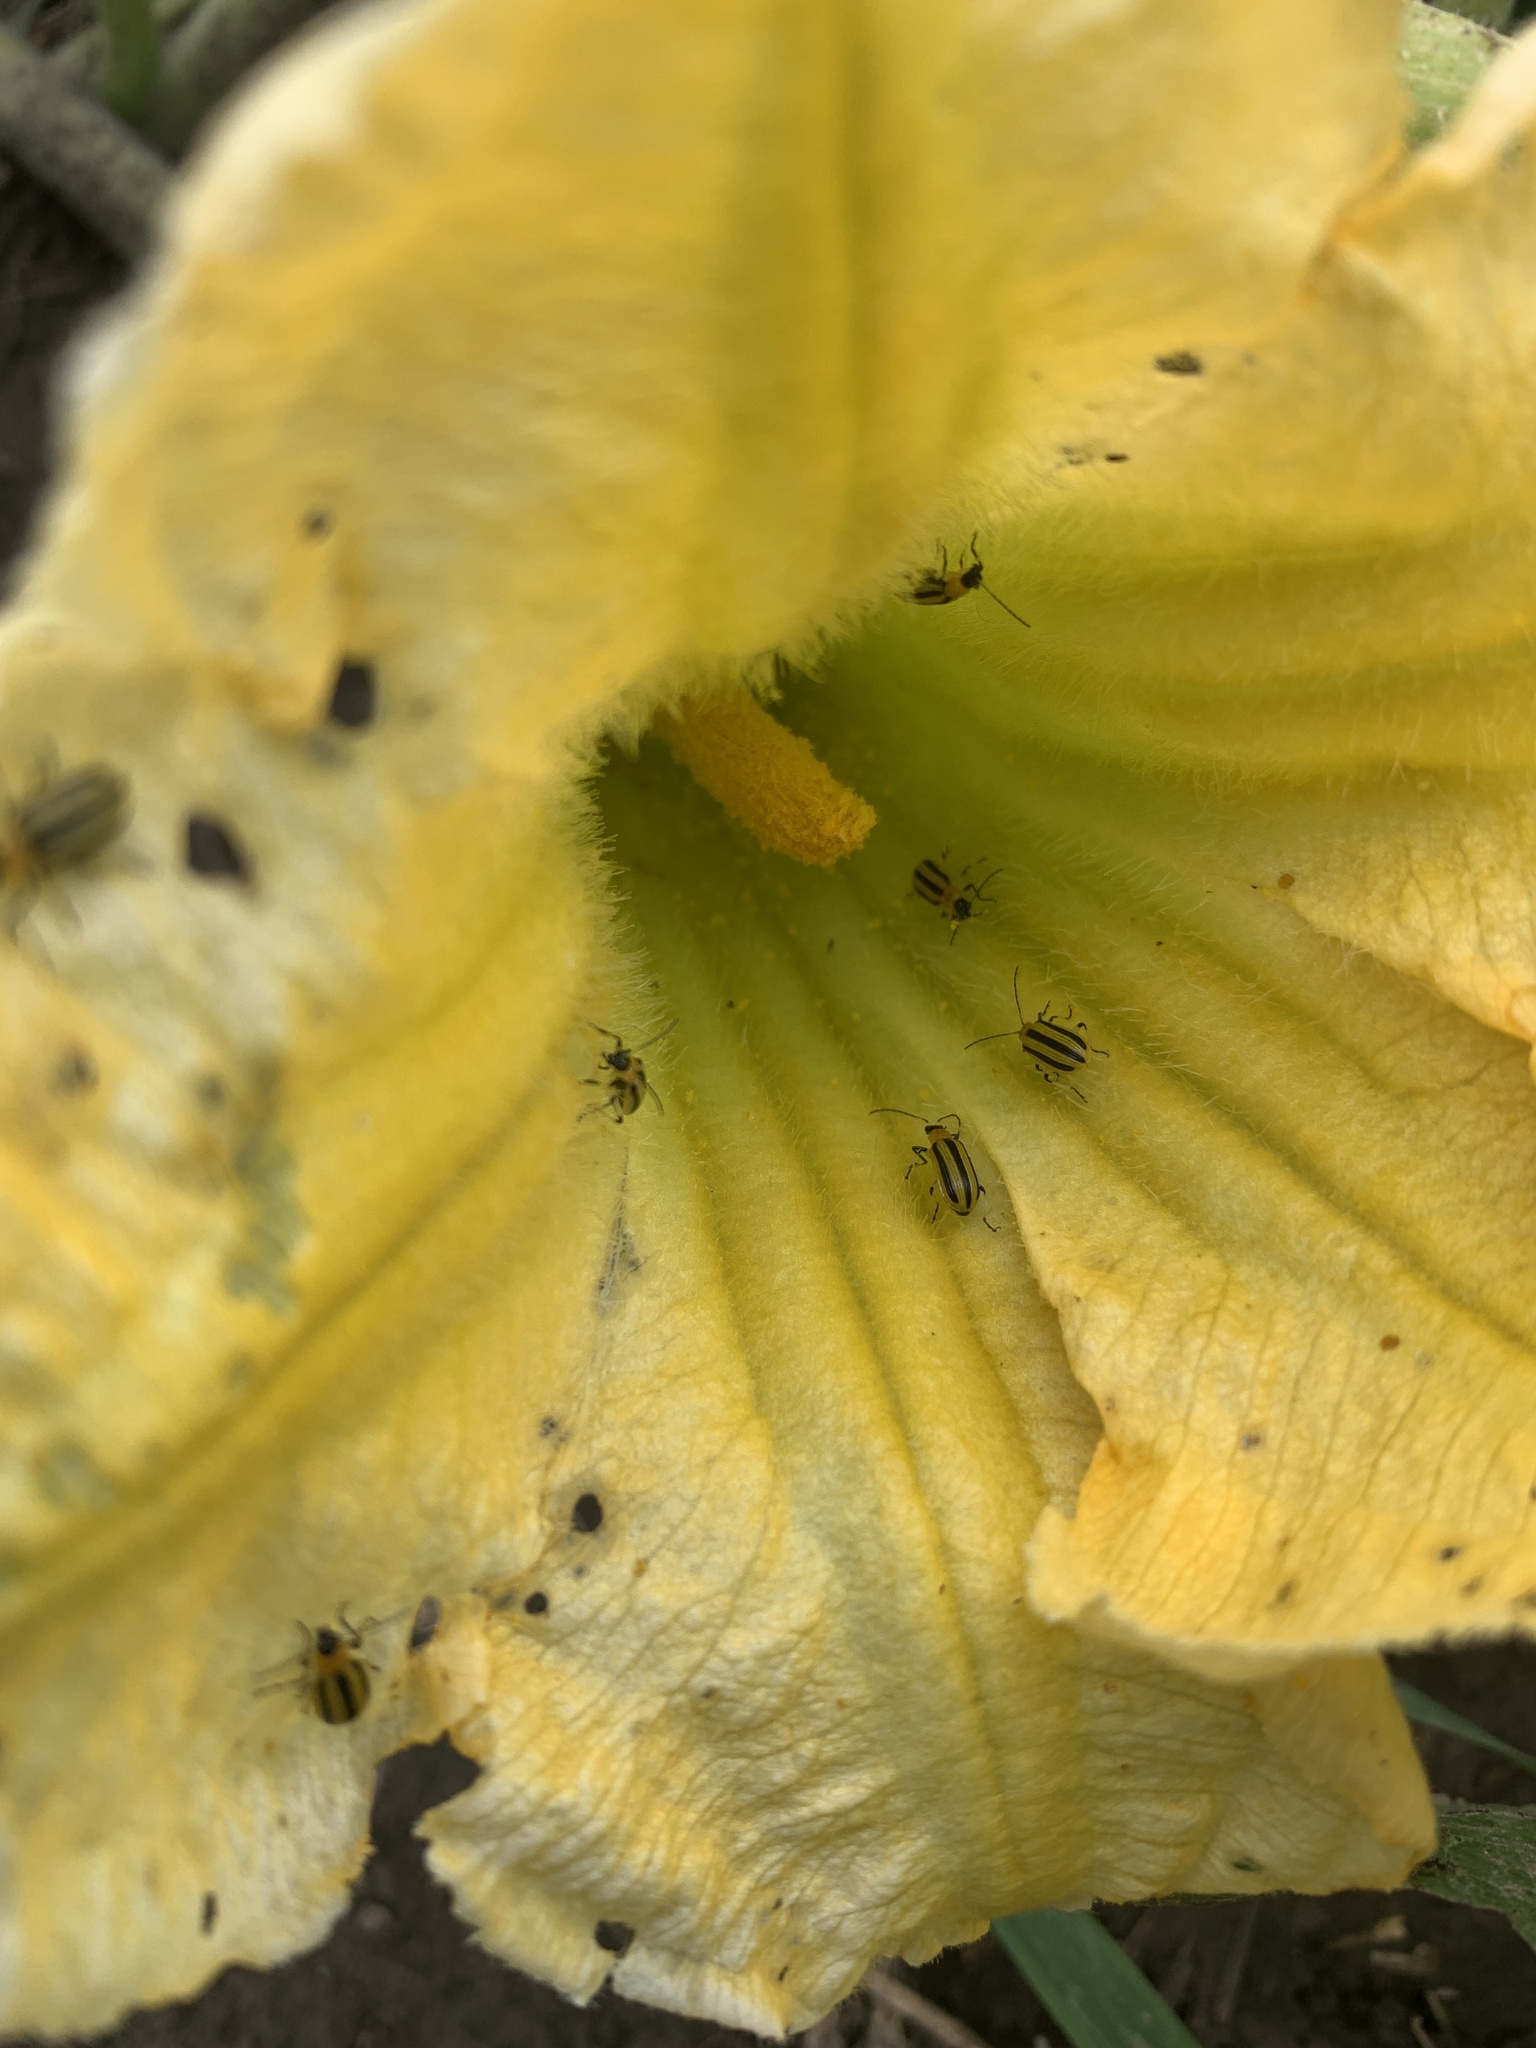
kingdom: Animalia
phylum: Arthropoda
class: Insecta
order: Coleoptera
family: Chrysomelidae
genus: Acalymma
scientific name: Acalymma vittatum
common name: Striped cucumber beetle
